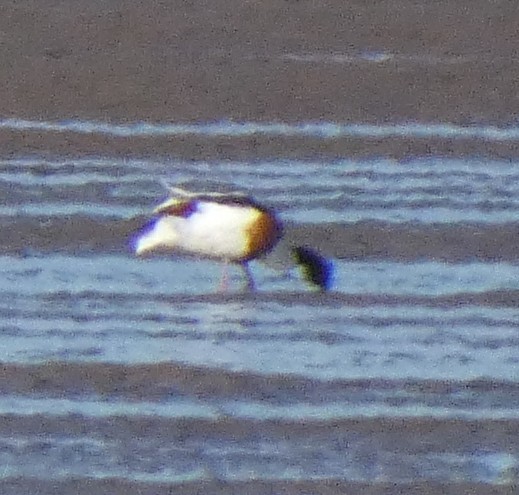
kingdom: Animalia
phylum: Chordata
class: Aves
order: Anseriformes
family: Anatidae
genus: Tadorna
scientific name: Tadorna tadorna
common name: Common shelduck
